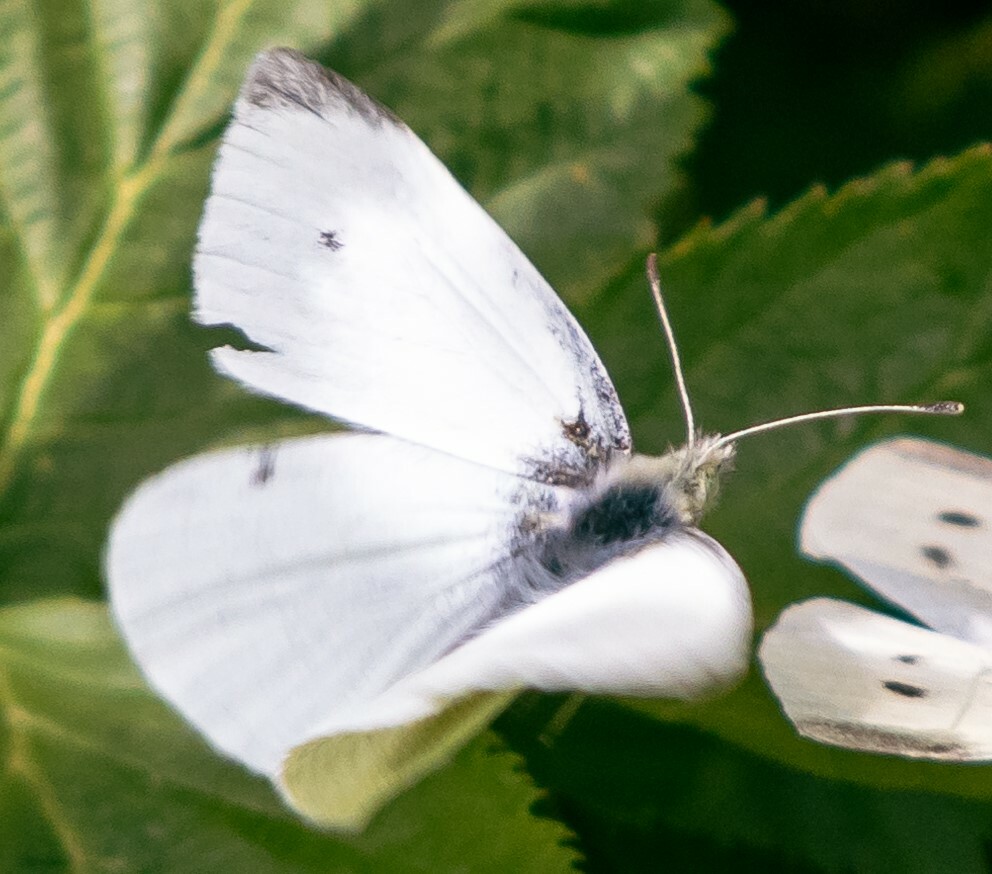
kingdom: Animalia
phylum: Arthropoda
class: Insecta
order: Lepidoptera
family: Pieridae
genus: Pieris
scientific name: Pieris rapae
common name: Small white
